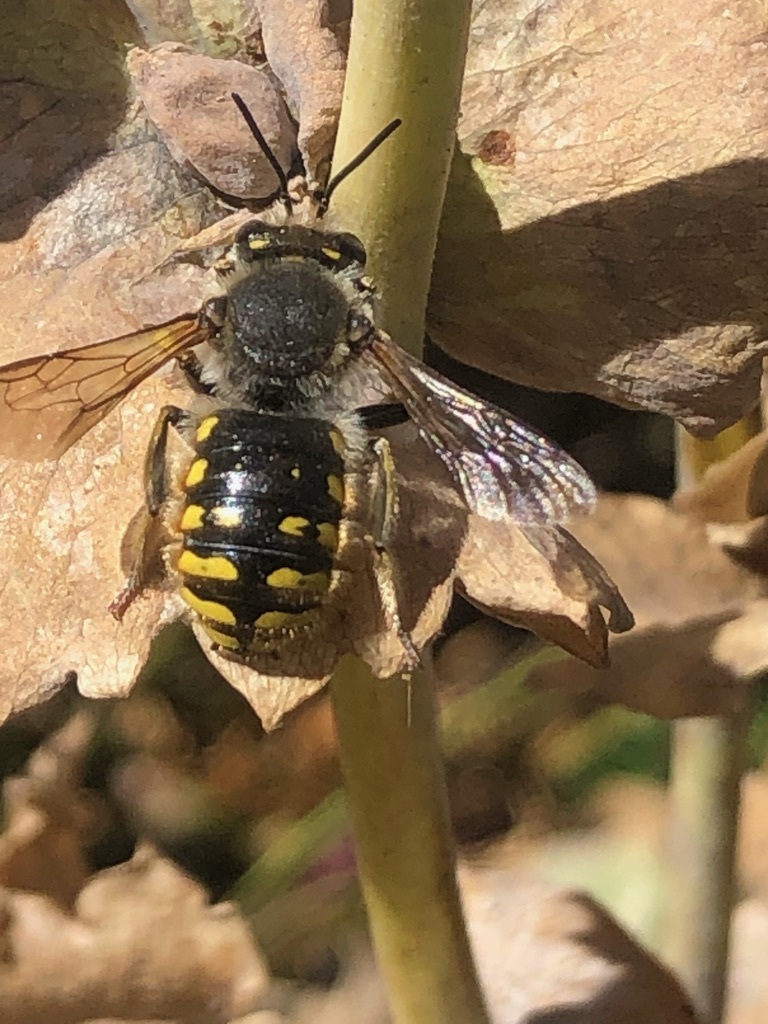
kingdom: Animalia
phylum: Arthropoda
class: Insecta
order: Hymenoptera
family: Megachilidae
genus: Anthidium
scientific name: Anthidium manicatum
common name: Wool carder bee
